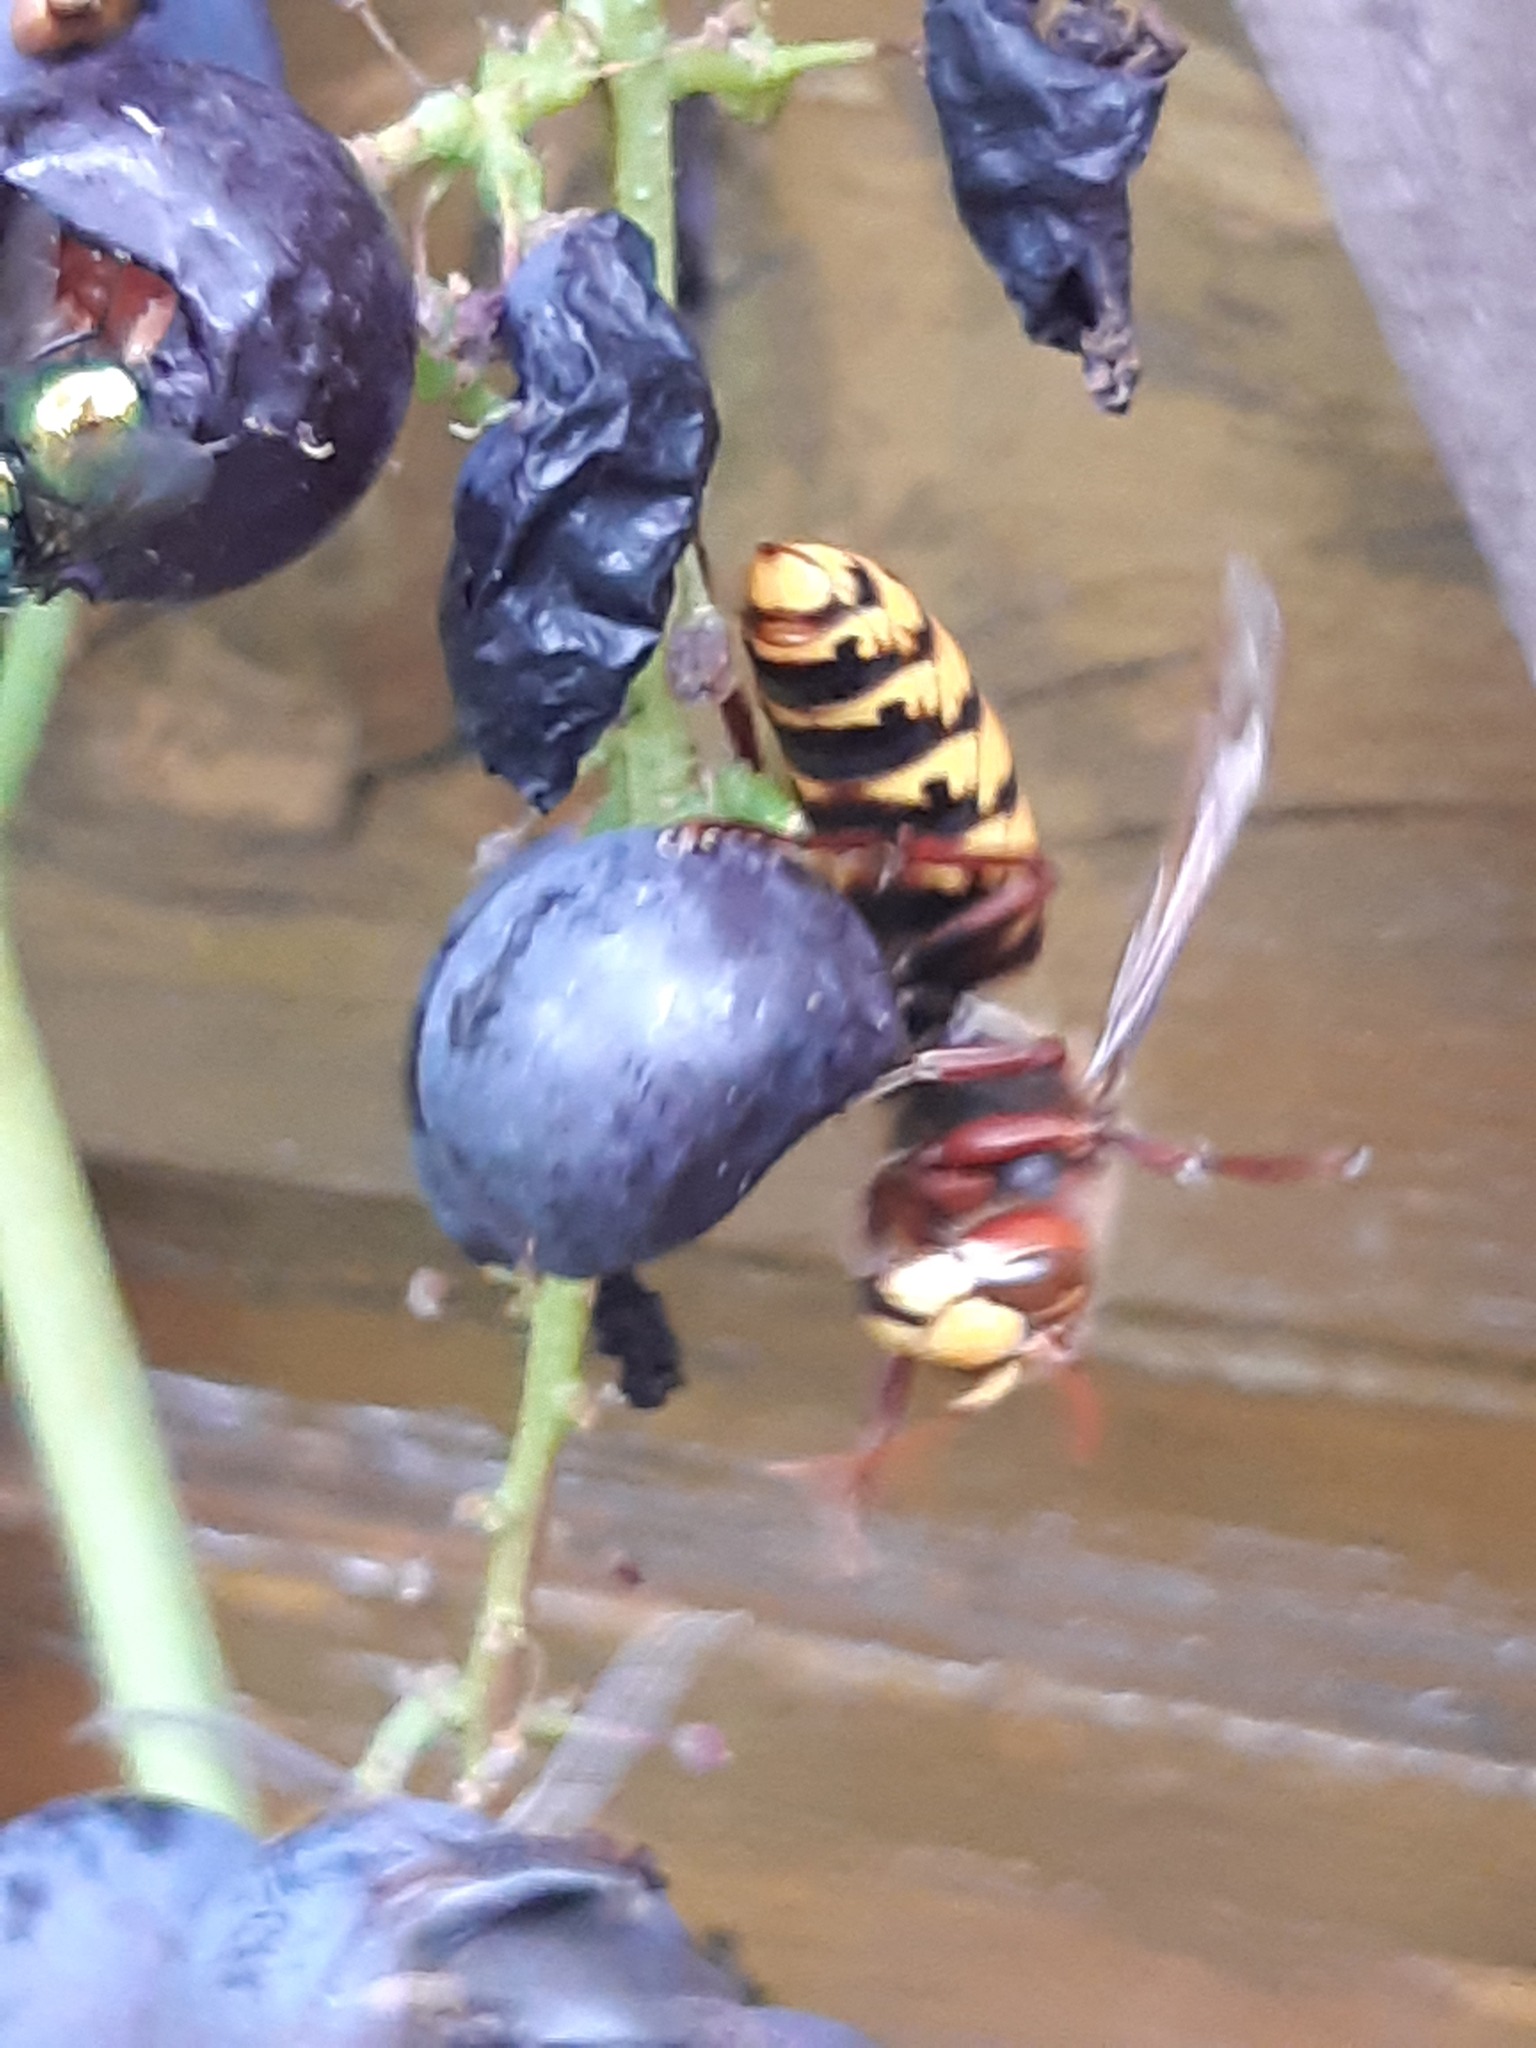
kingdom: Animalia
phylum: Arthropoda
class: Insecta
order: Hymenoptera
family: Vespidae
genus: Vespa
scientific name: Vespa crabro
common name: Hornet
